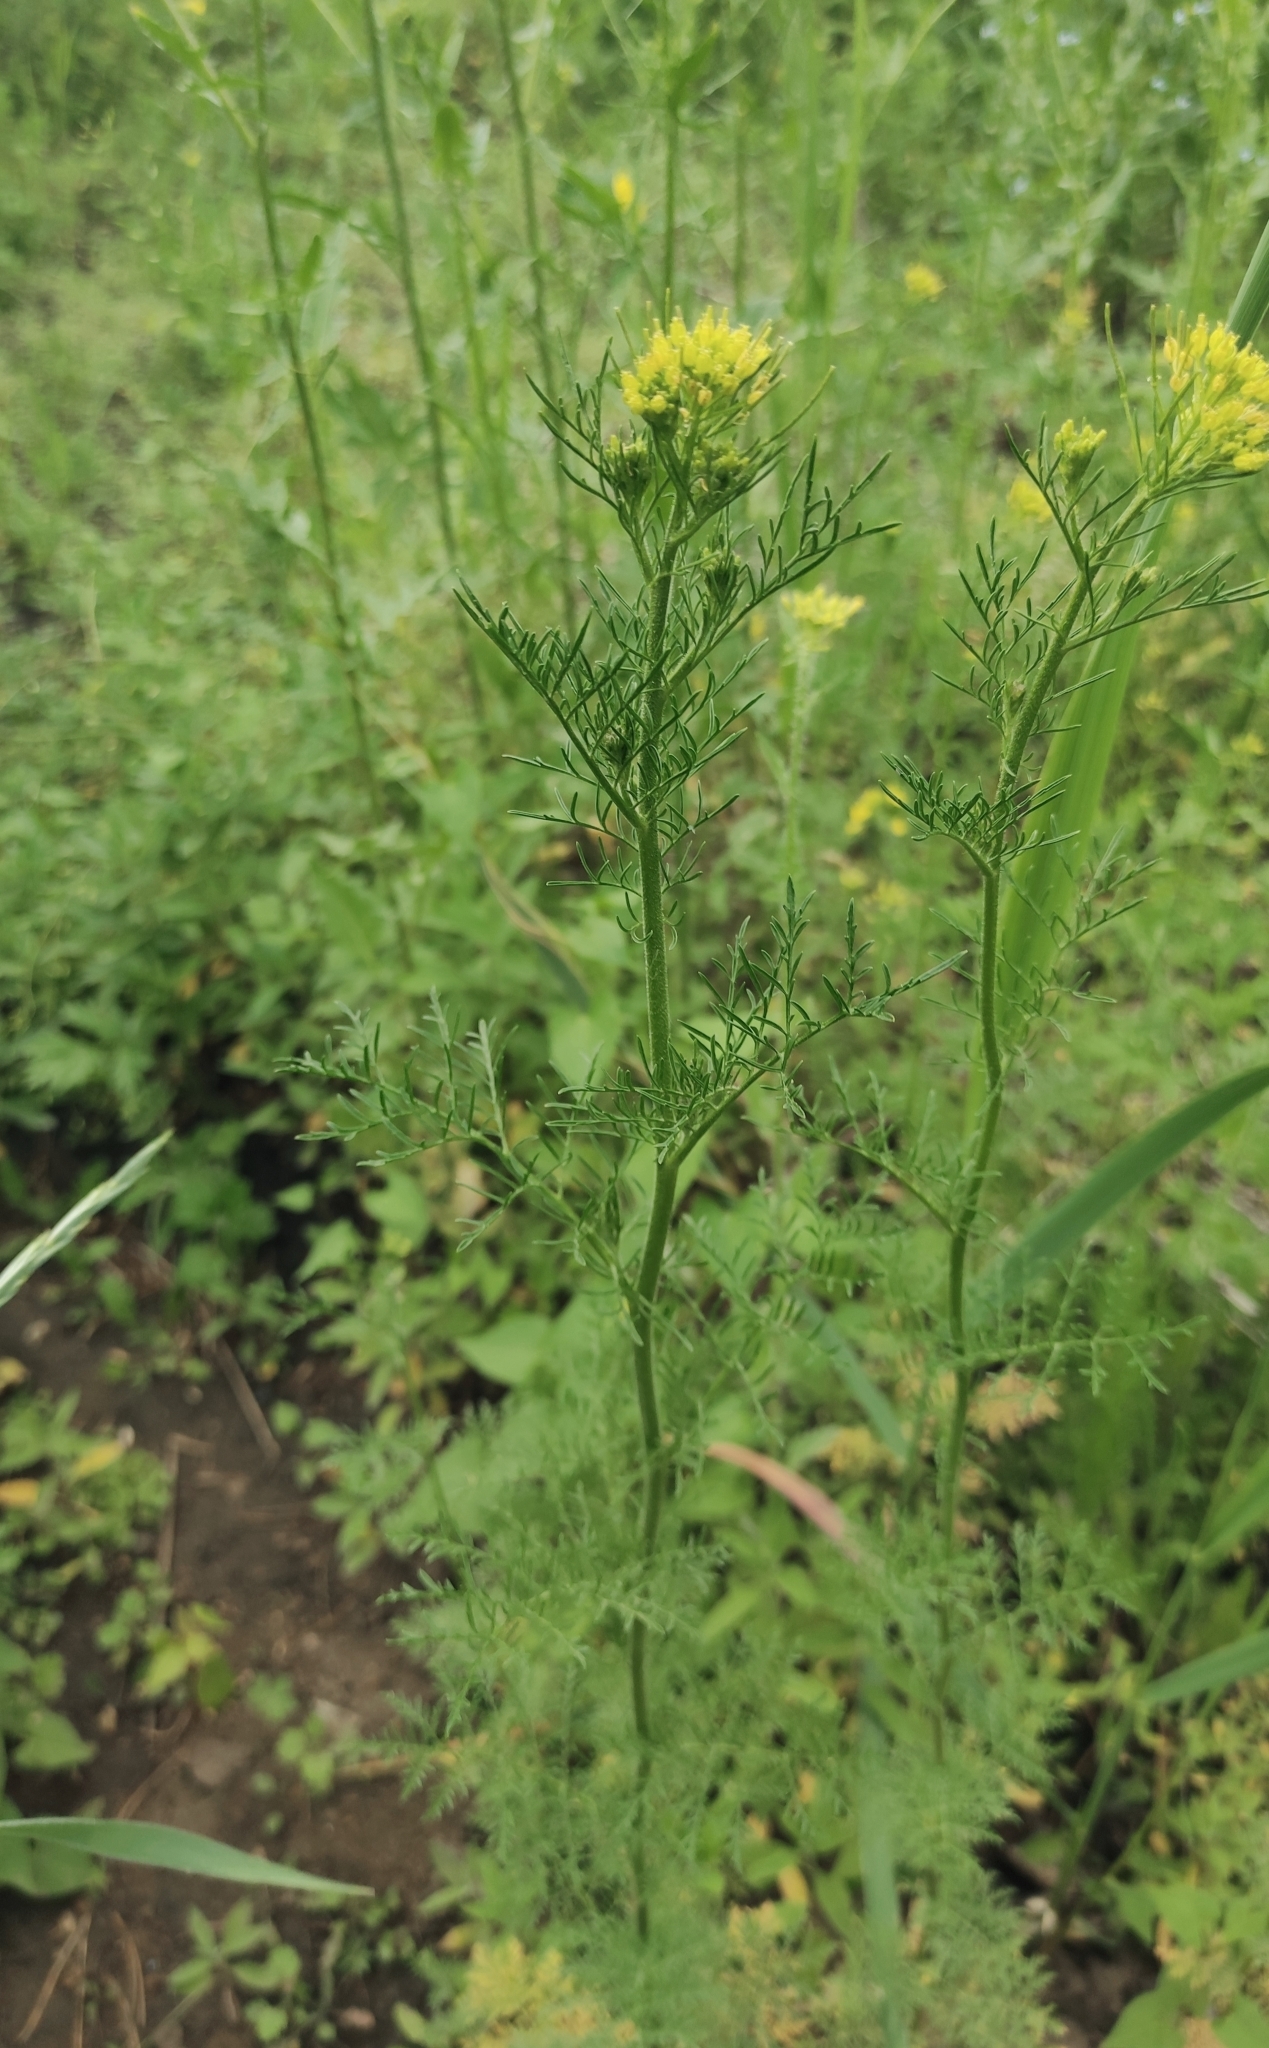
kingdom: Plantae
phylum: Tracheophyta
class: Magnoliopsida
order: Brassicales
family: Brassicaceae
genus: Descurainia
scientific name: Descurainia sophia
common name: Flixweed
